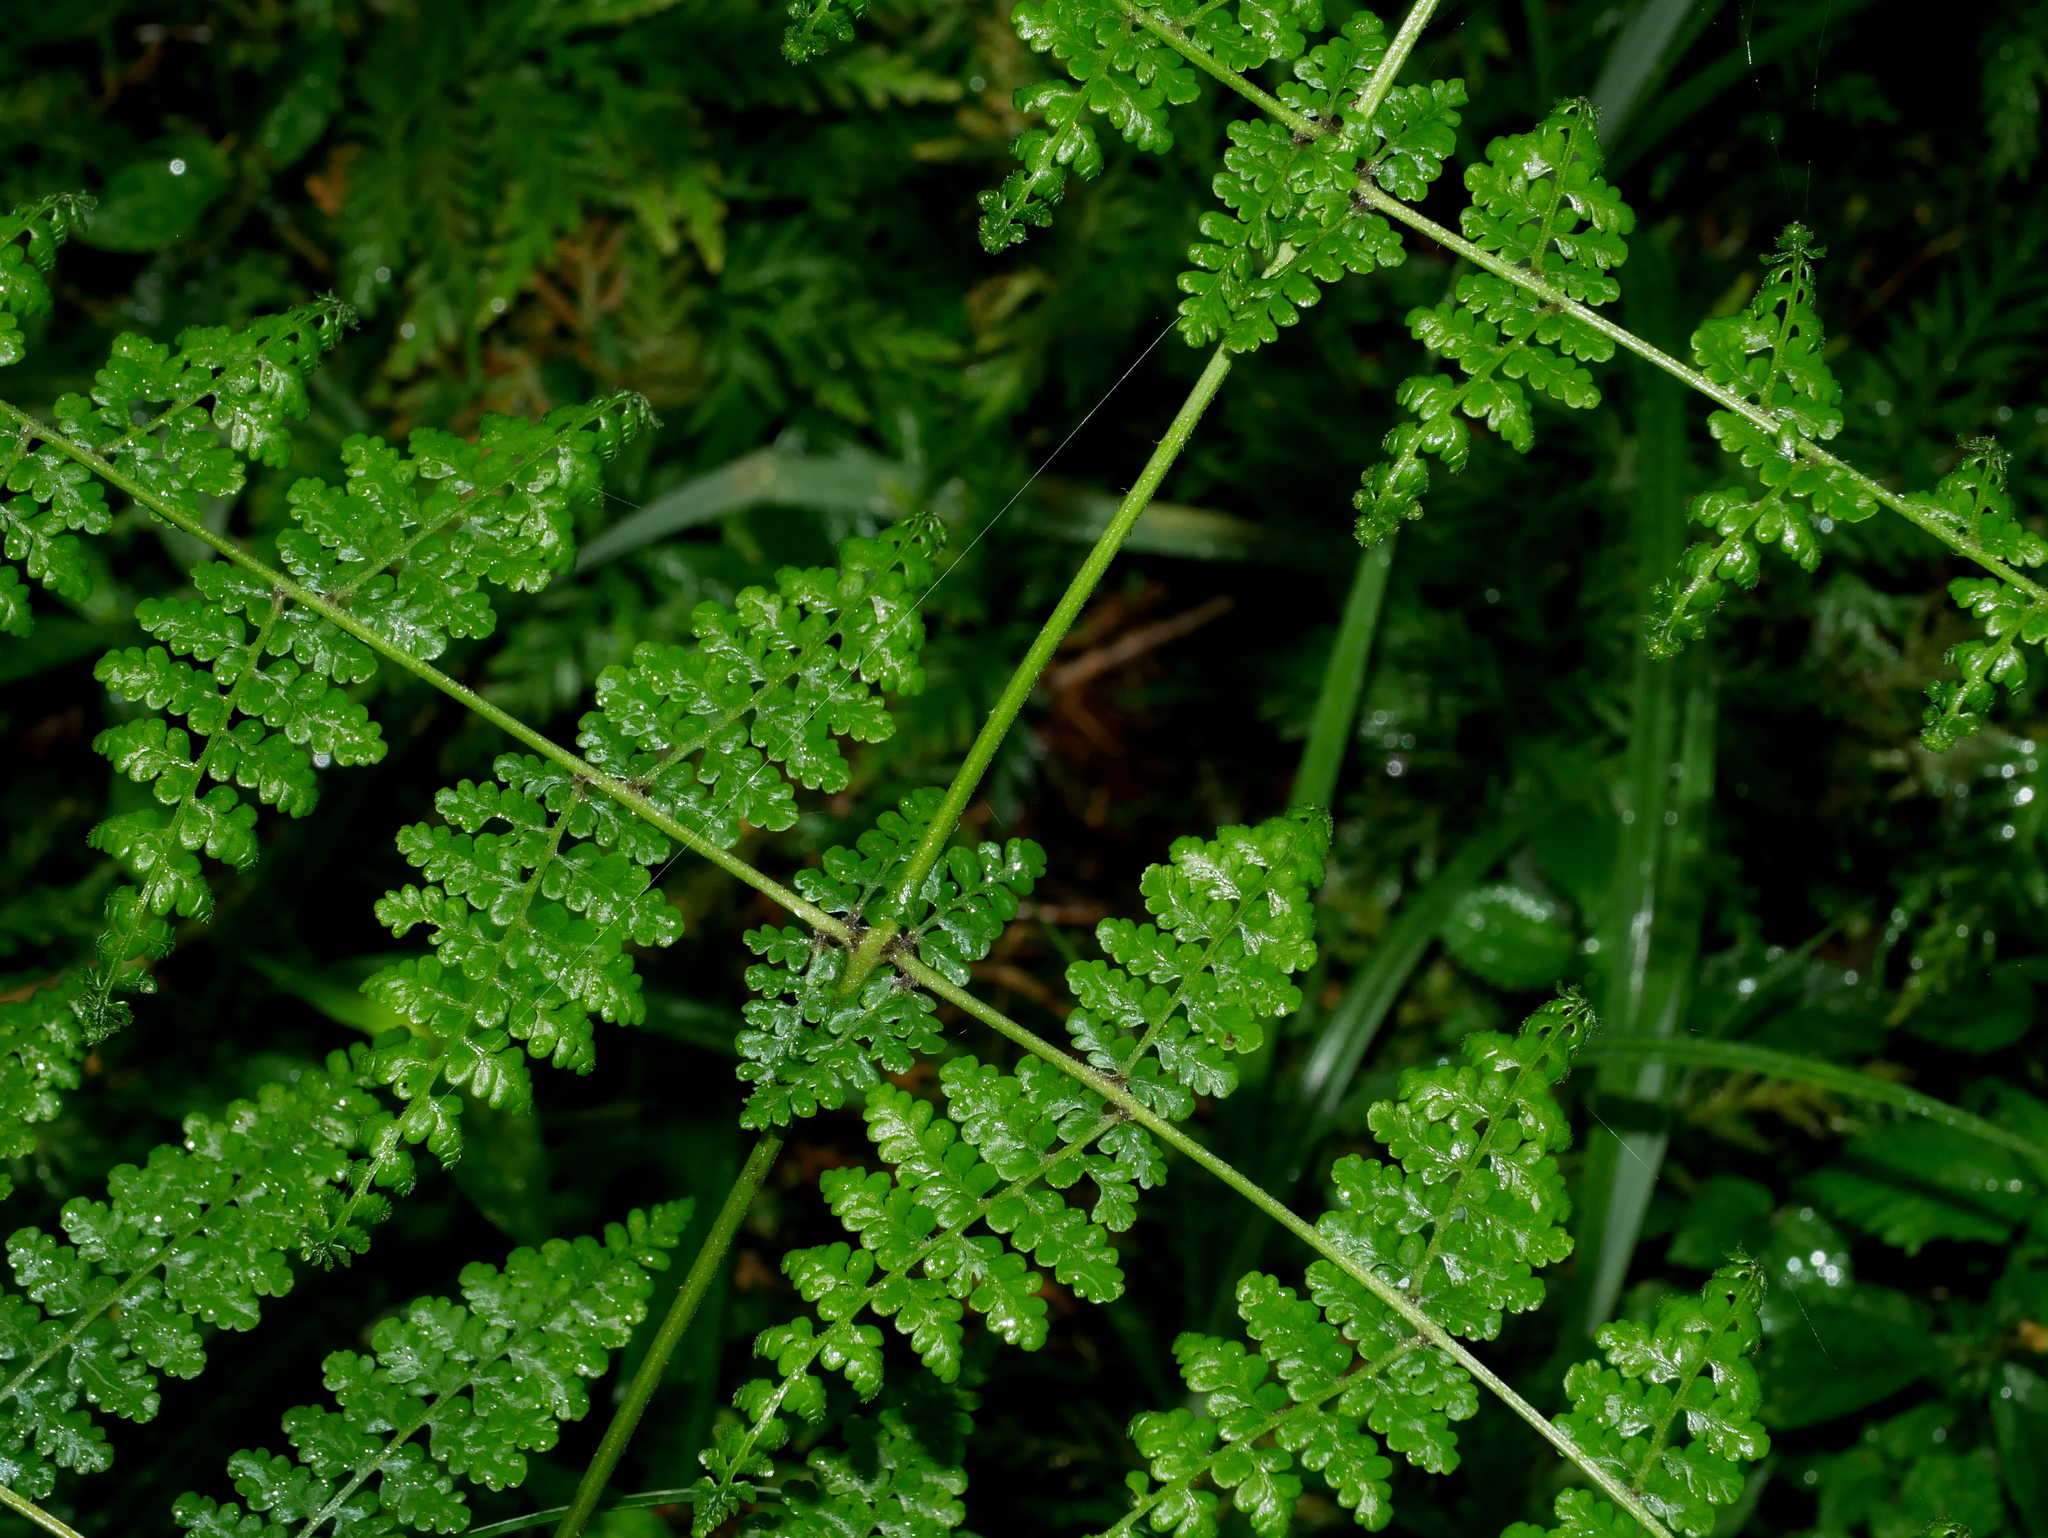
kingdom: Plantae
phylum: Tracheophyta
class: Polypodiopsida
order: Polypodiales
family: Dennstaedtiaceae
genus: Dennstaedtia
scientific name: Dennstaedtia scandens
